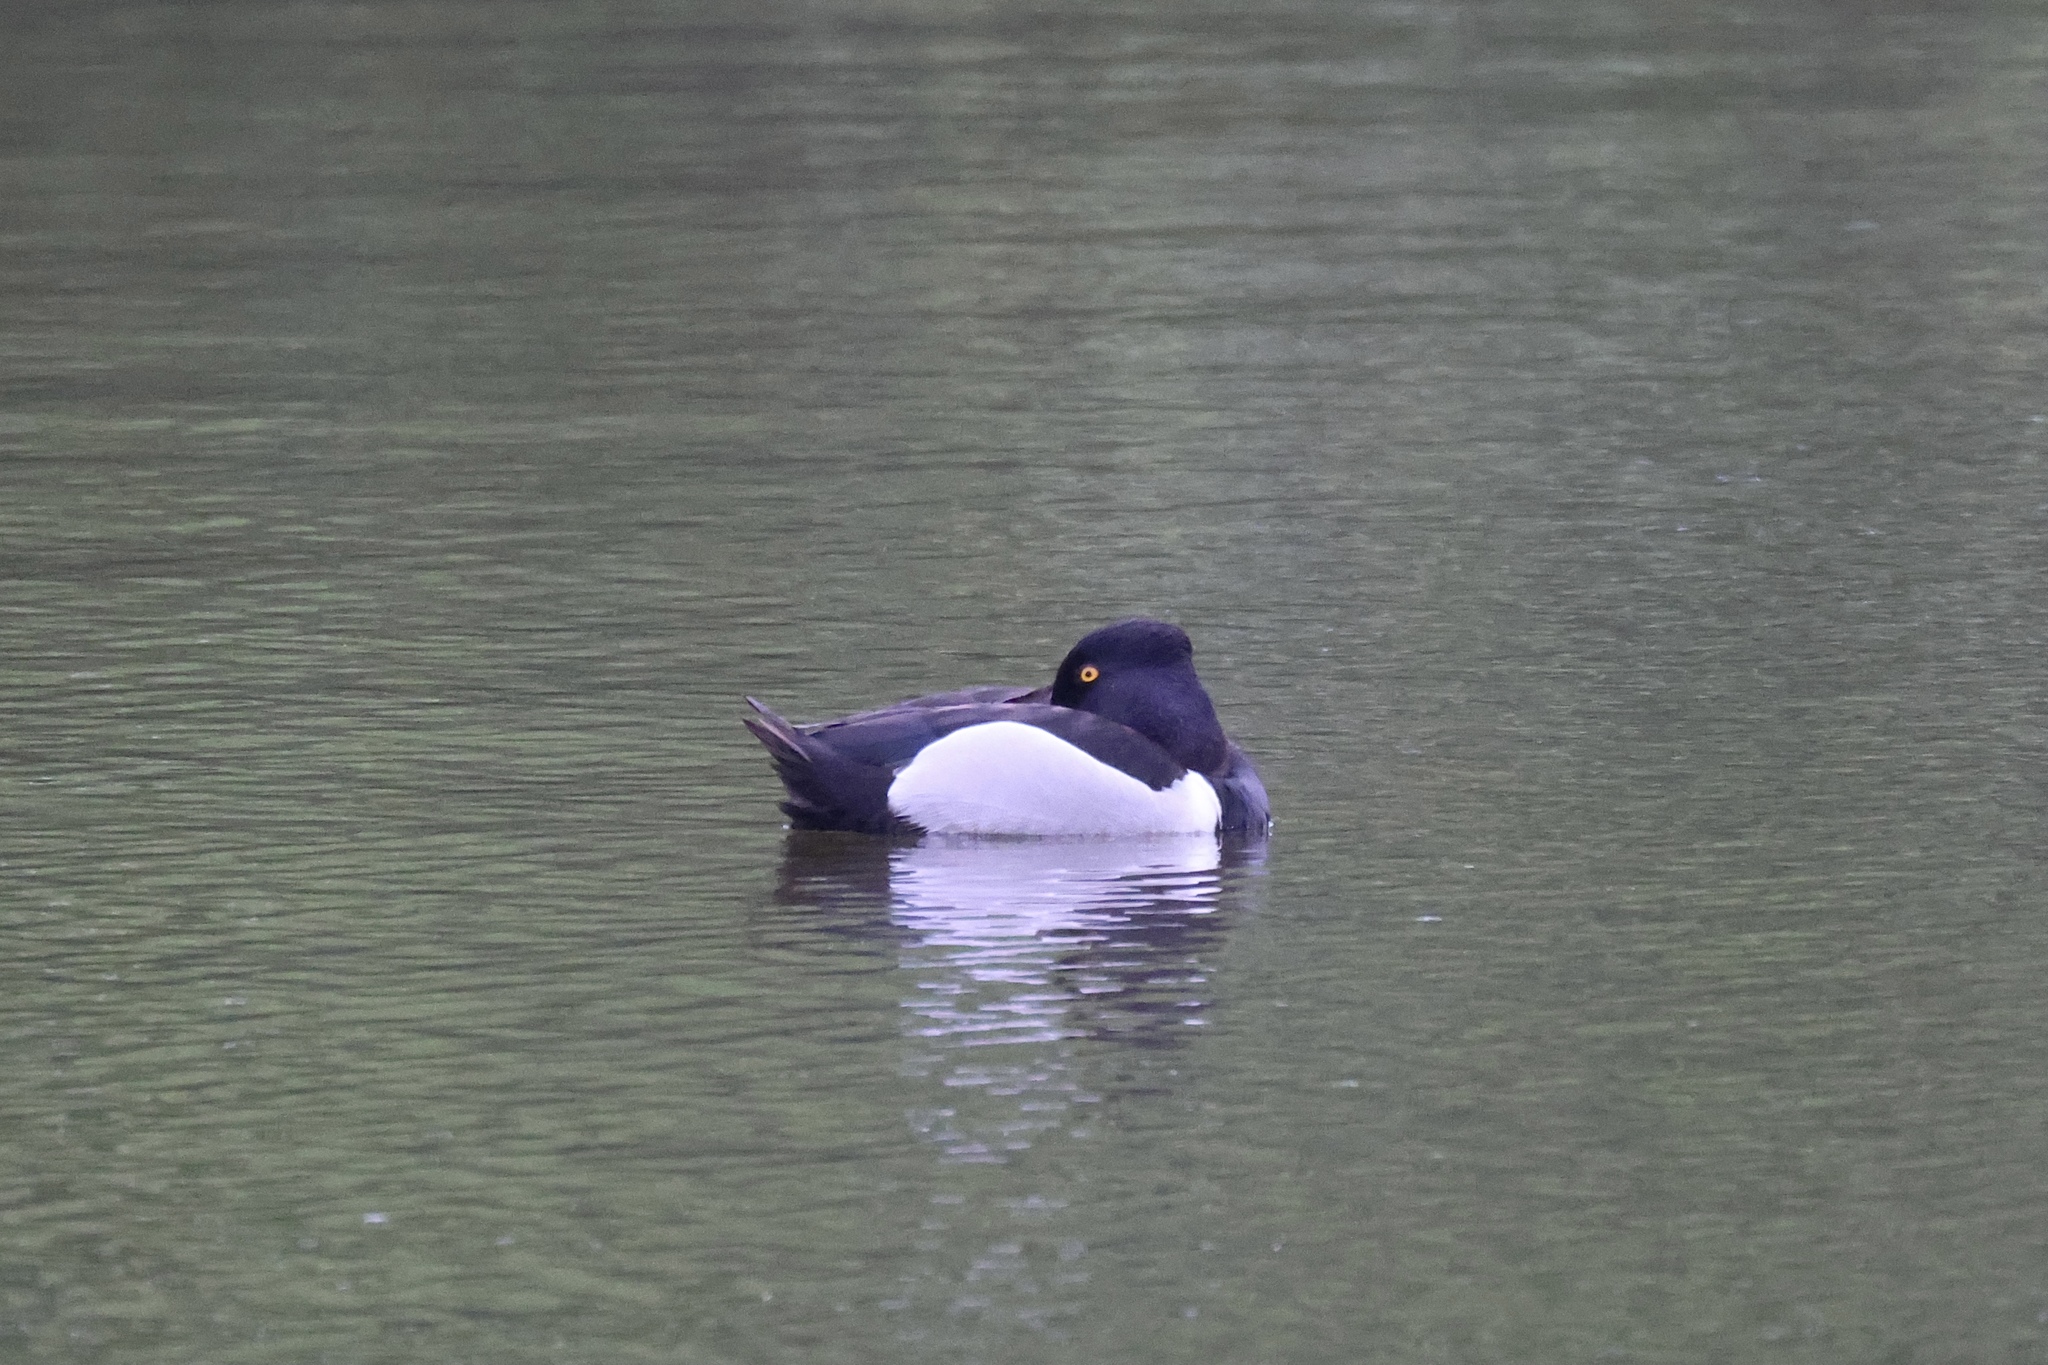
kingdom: Animalia
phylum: Chordata
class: Aves
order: Anseriformes
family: Anatidae
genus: Aythya
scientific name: Aythya collaris
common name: Ring-necked duck
